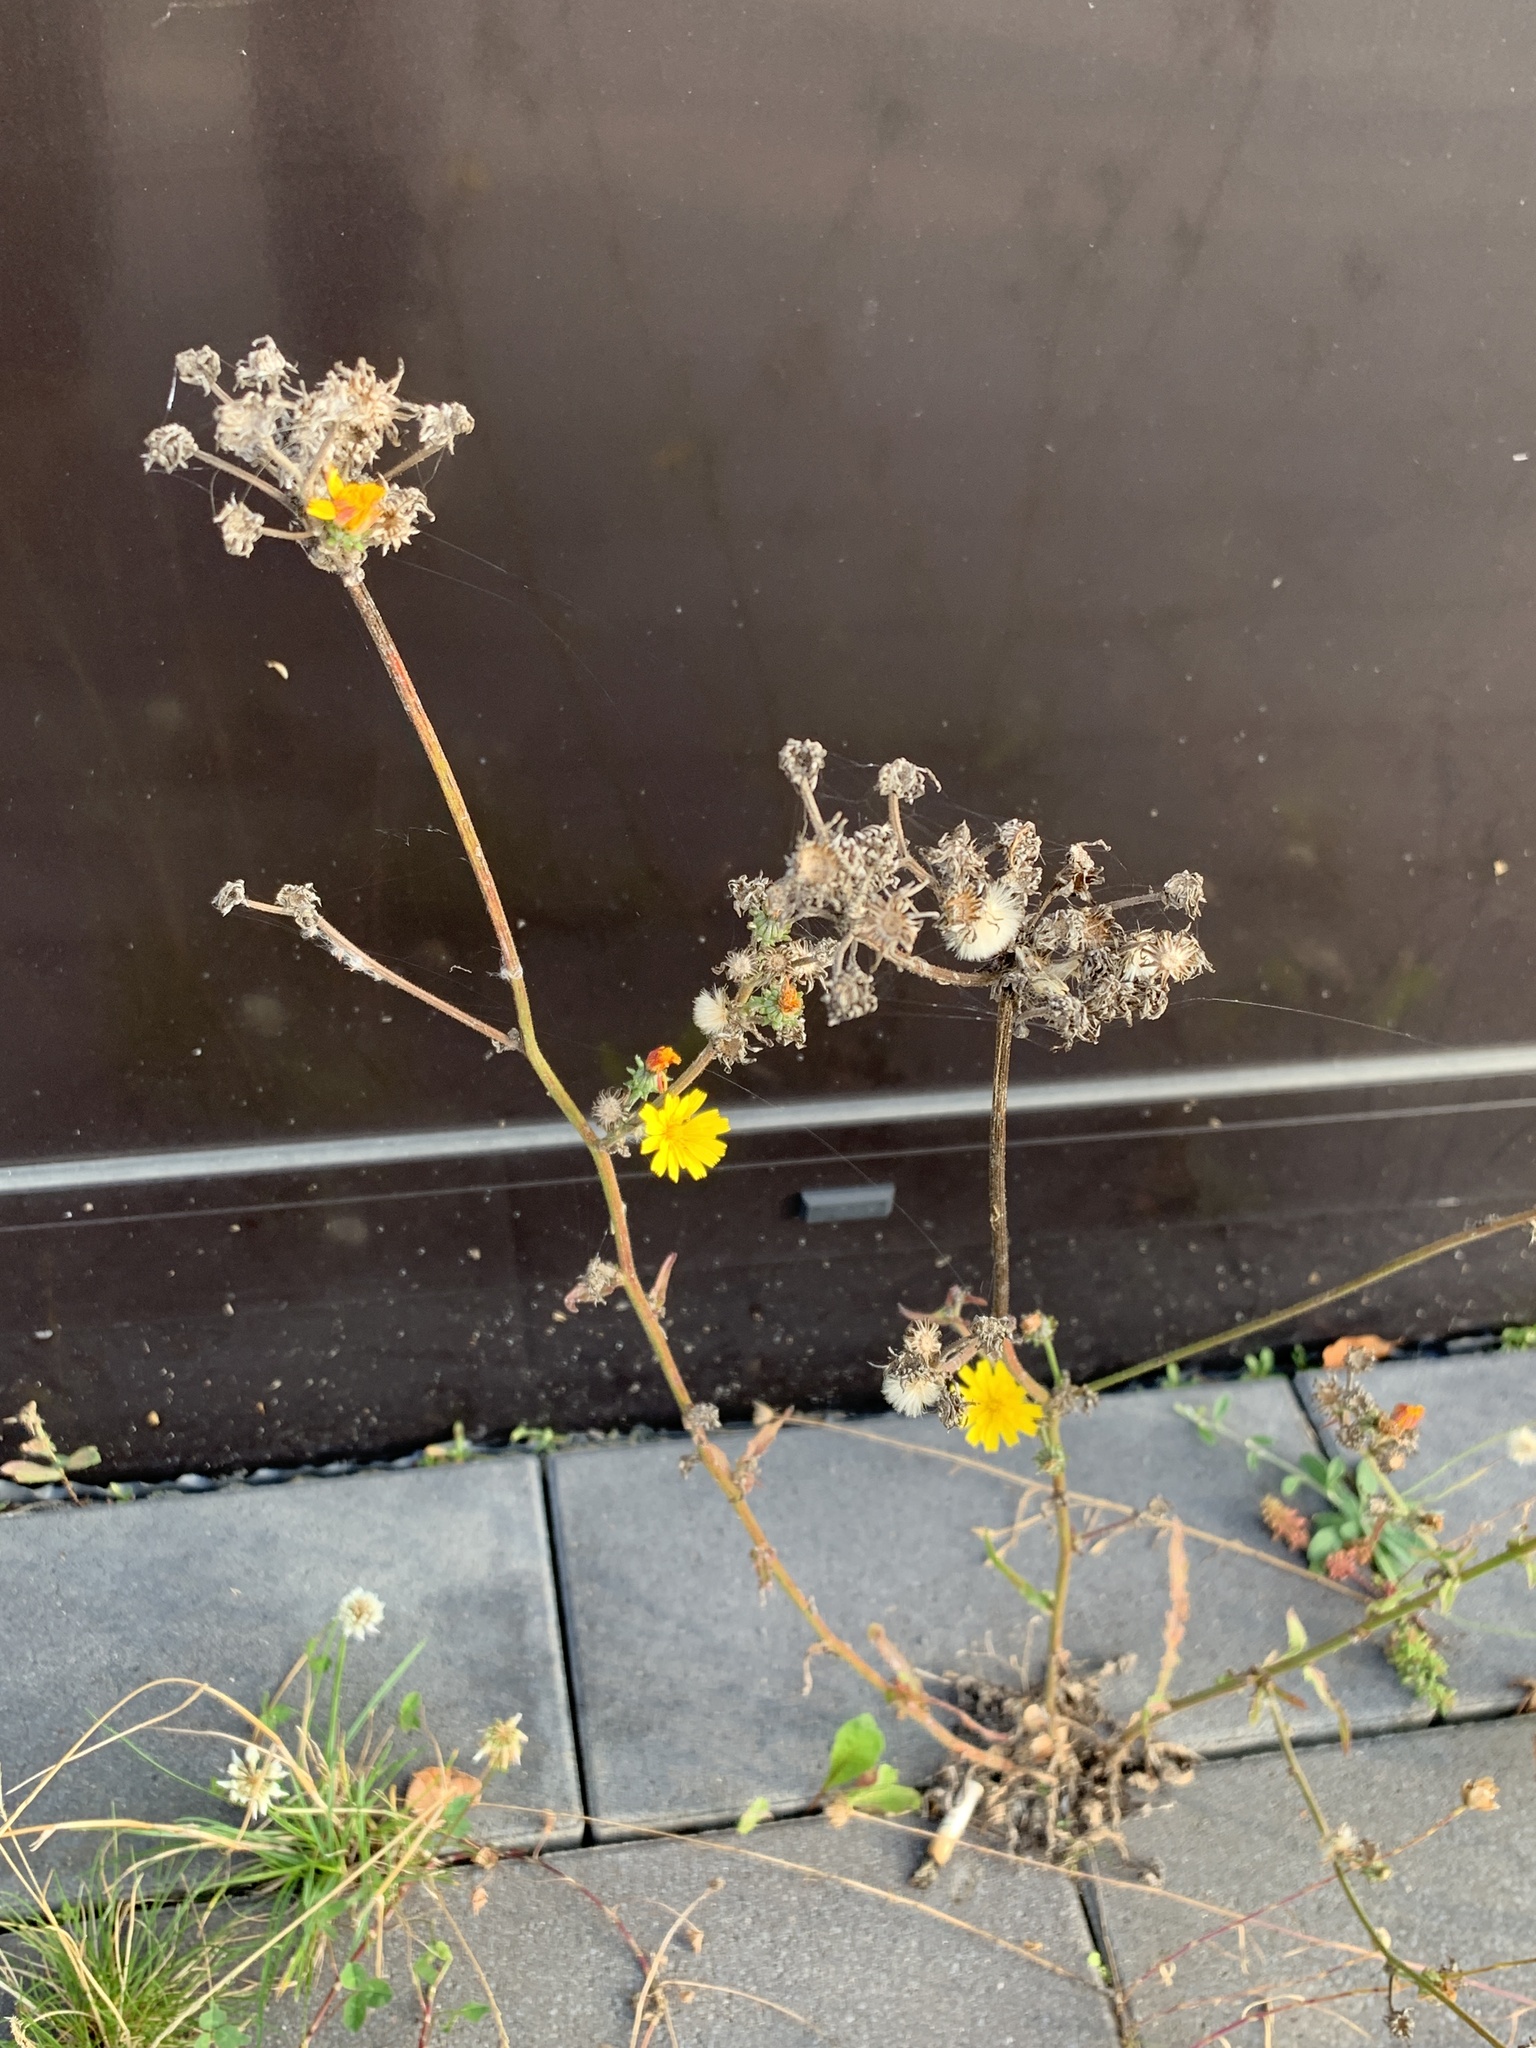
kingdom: Plantae
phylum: Tracheophyta
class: Magnoliopsida
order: Asterales
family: Asteraceae
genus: Picris
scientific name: Picris hieracioides
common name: Hawkweed oxtongue
